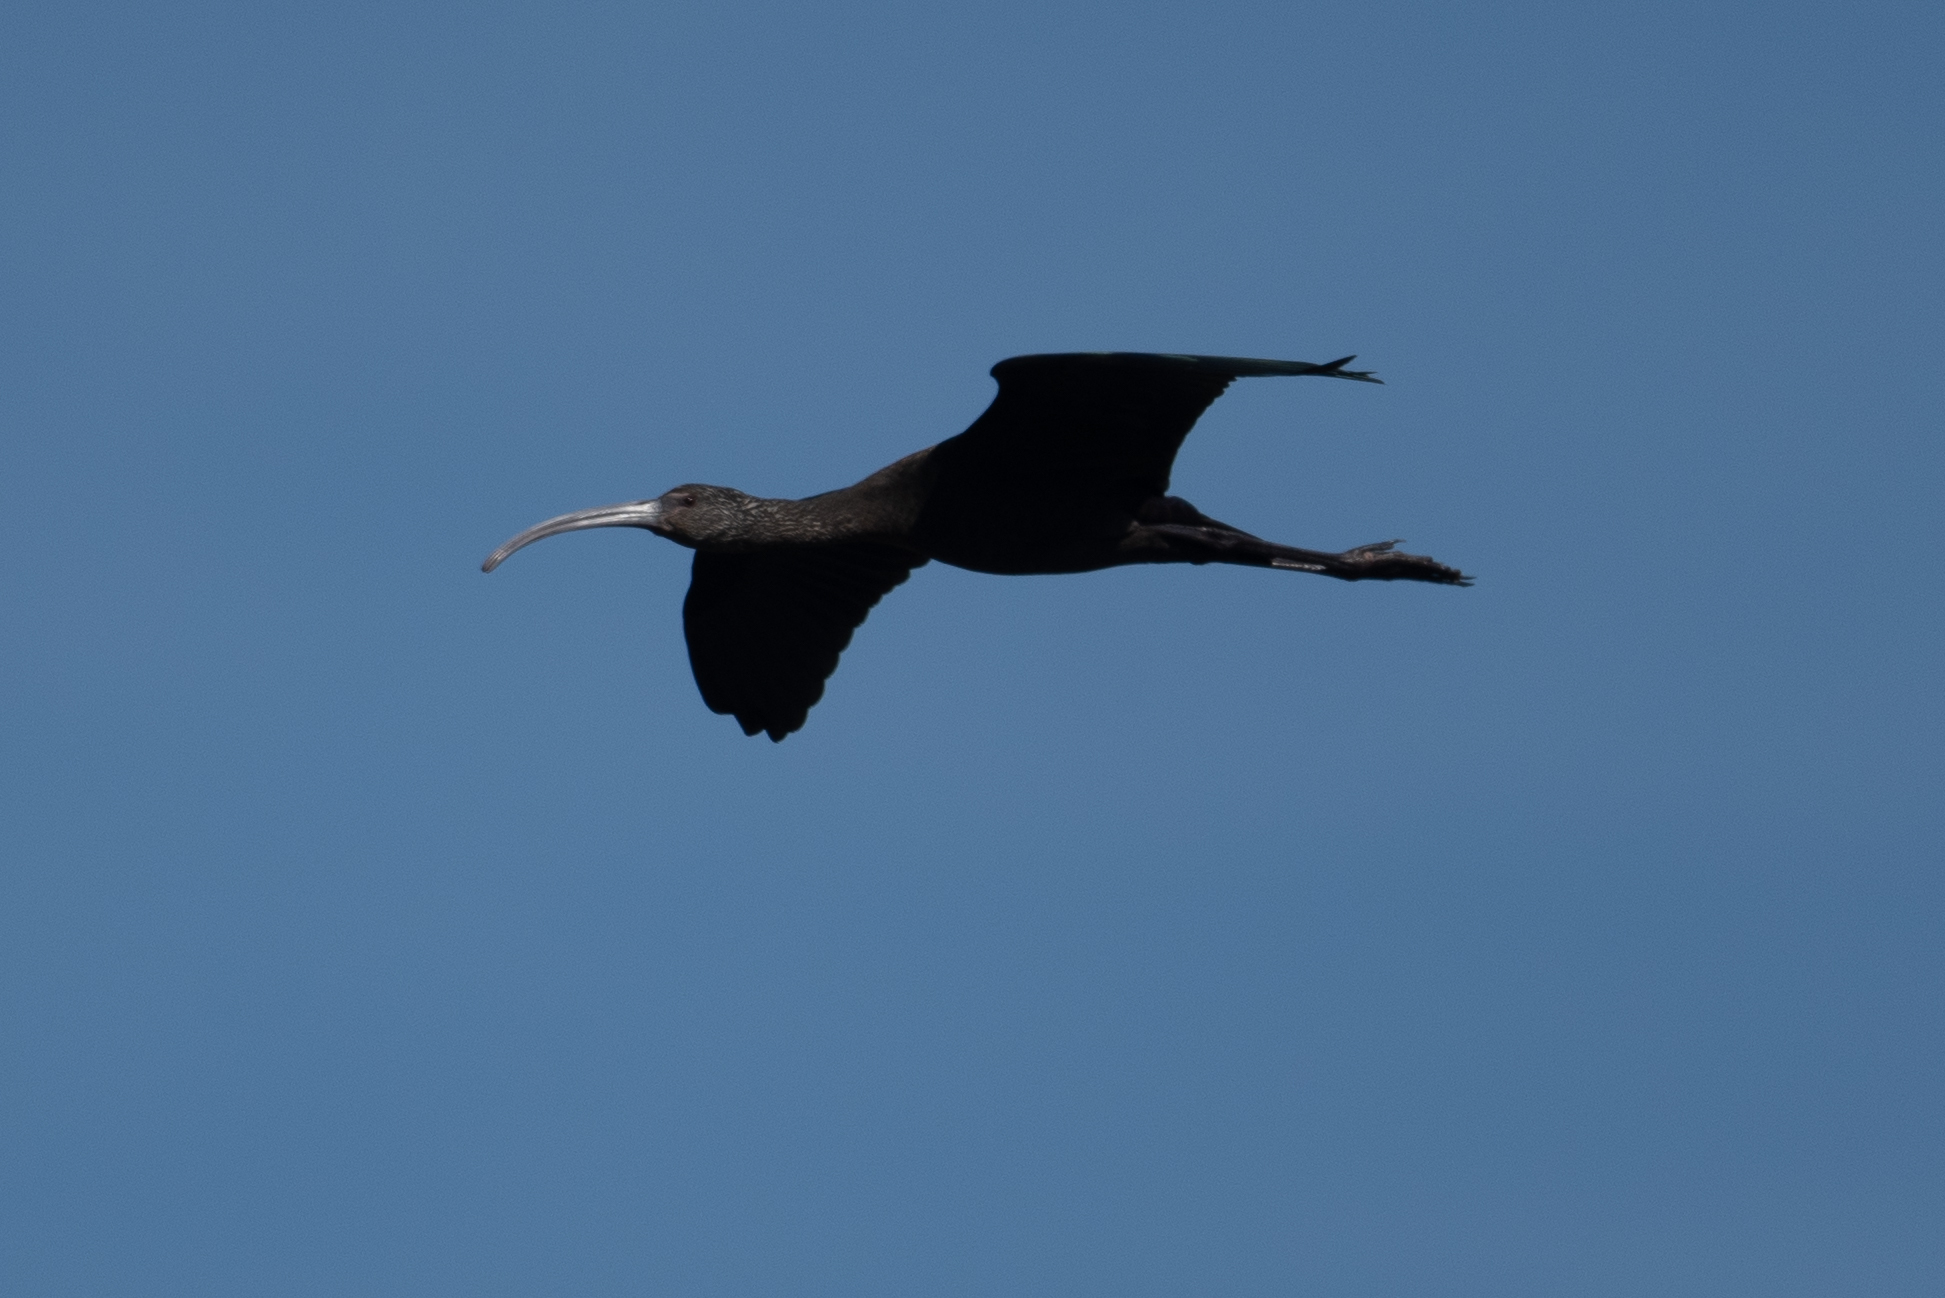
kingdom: Animalia
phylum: Chordata
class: Aves
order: Pelecaniformes
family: Threskiornithidae
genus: Plegadis
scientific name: Plegadis chihi
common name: White-faced ibis
